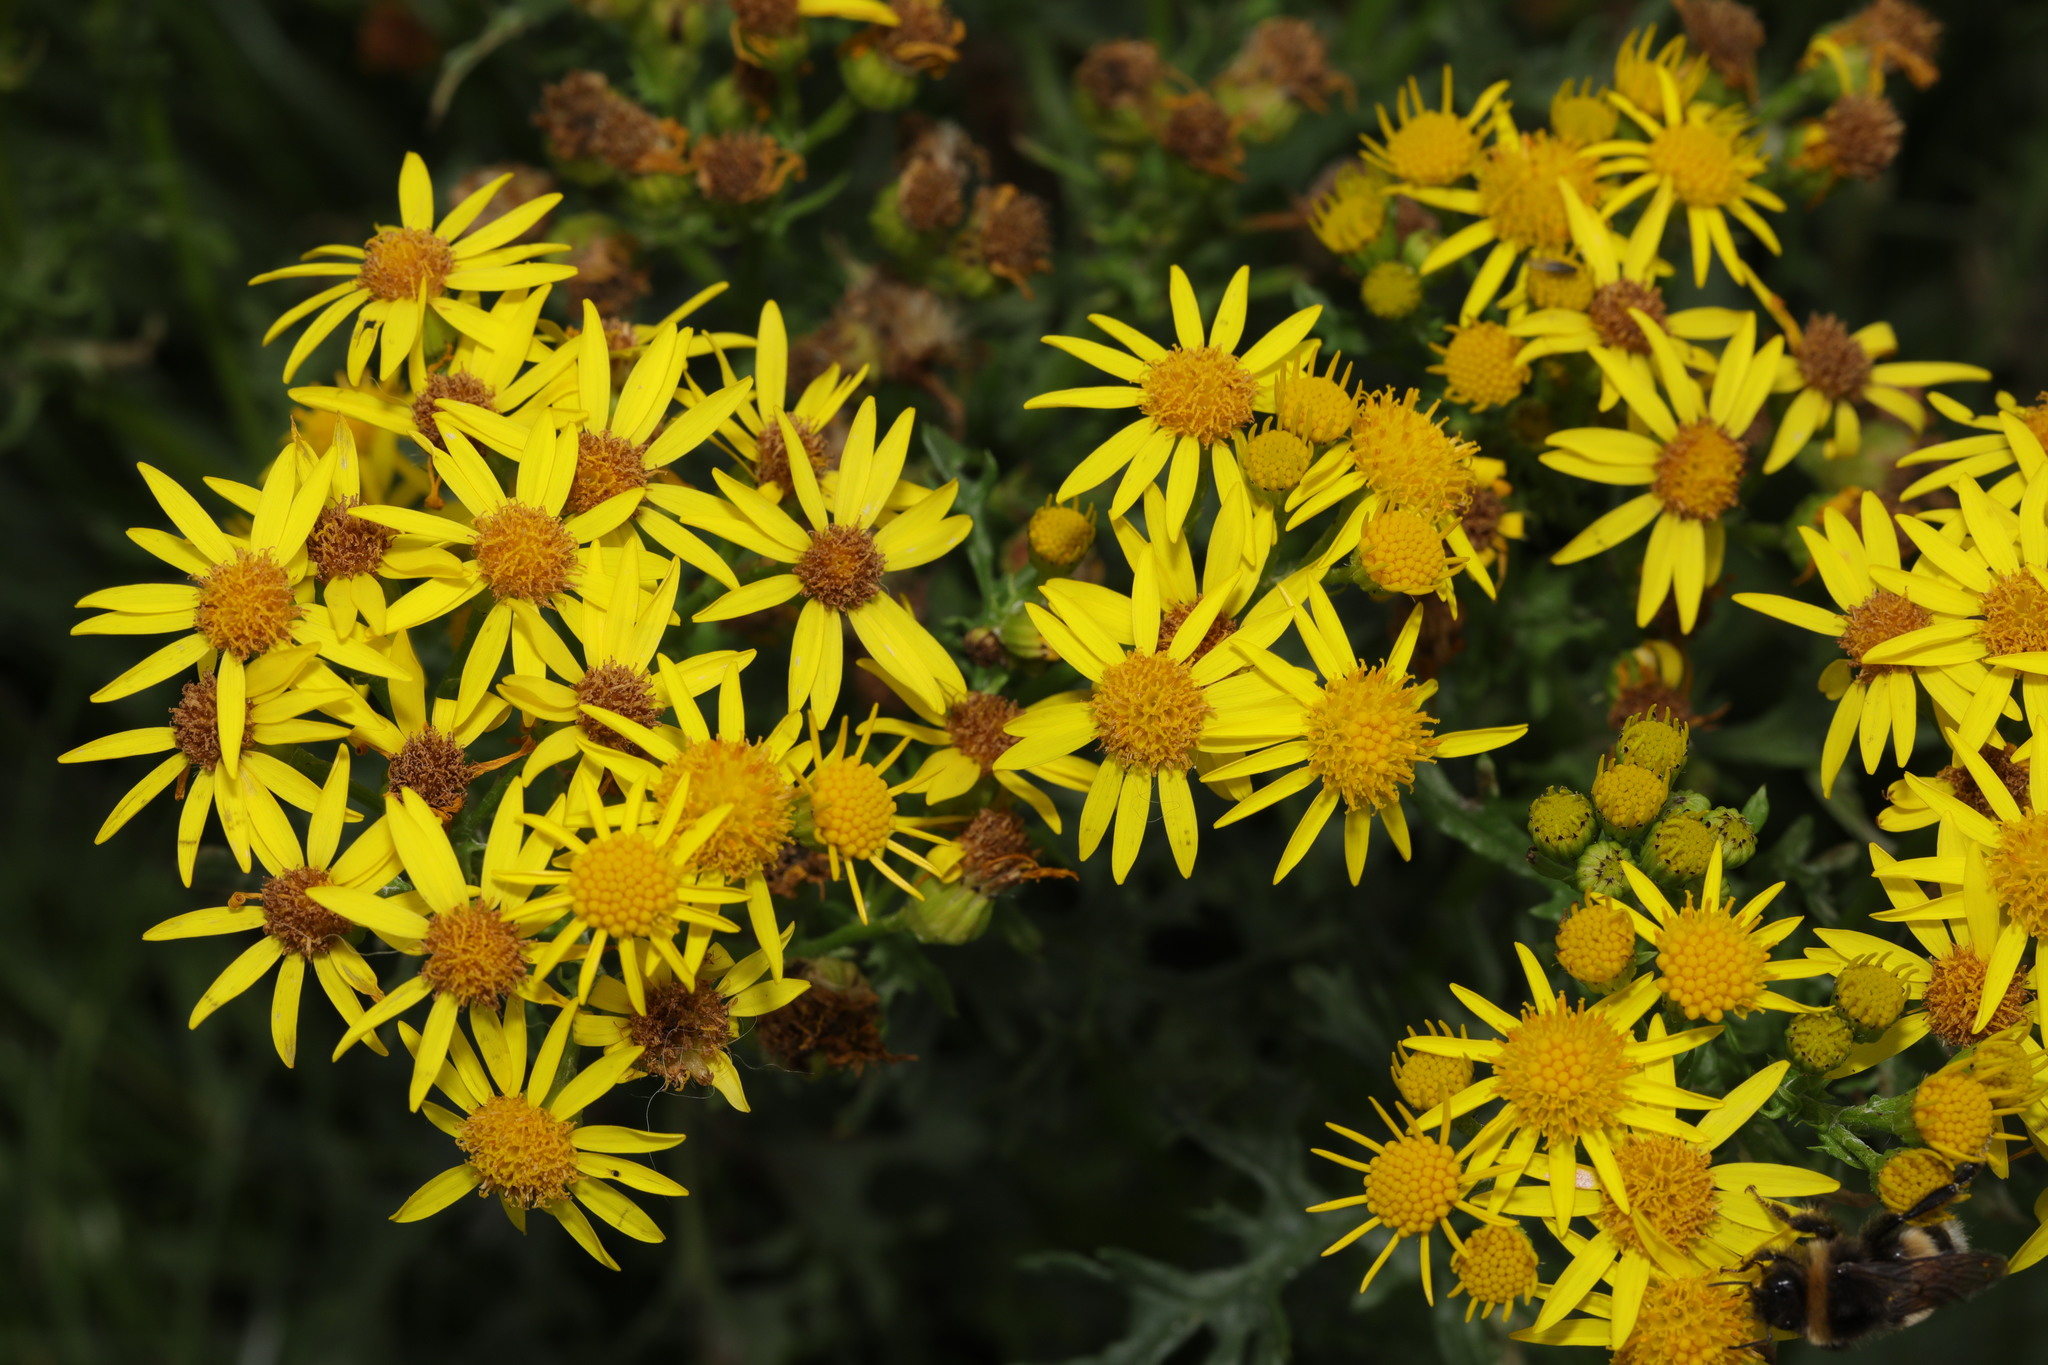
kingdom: Plantae
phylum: Tracheophyta
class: Magnoliopsida
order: Asterales
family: Asteraceae
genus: Jacobaea
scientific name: Jacobaea vulgaris
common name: Stinking willie
